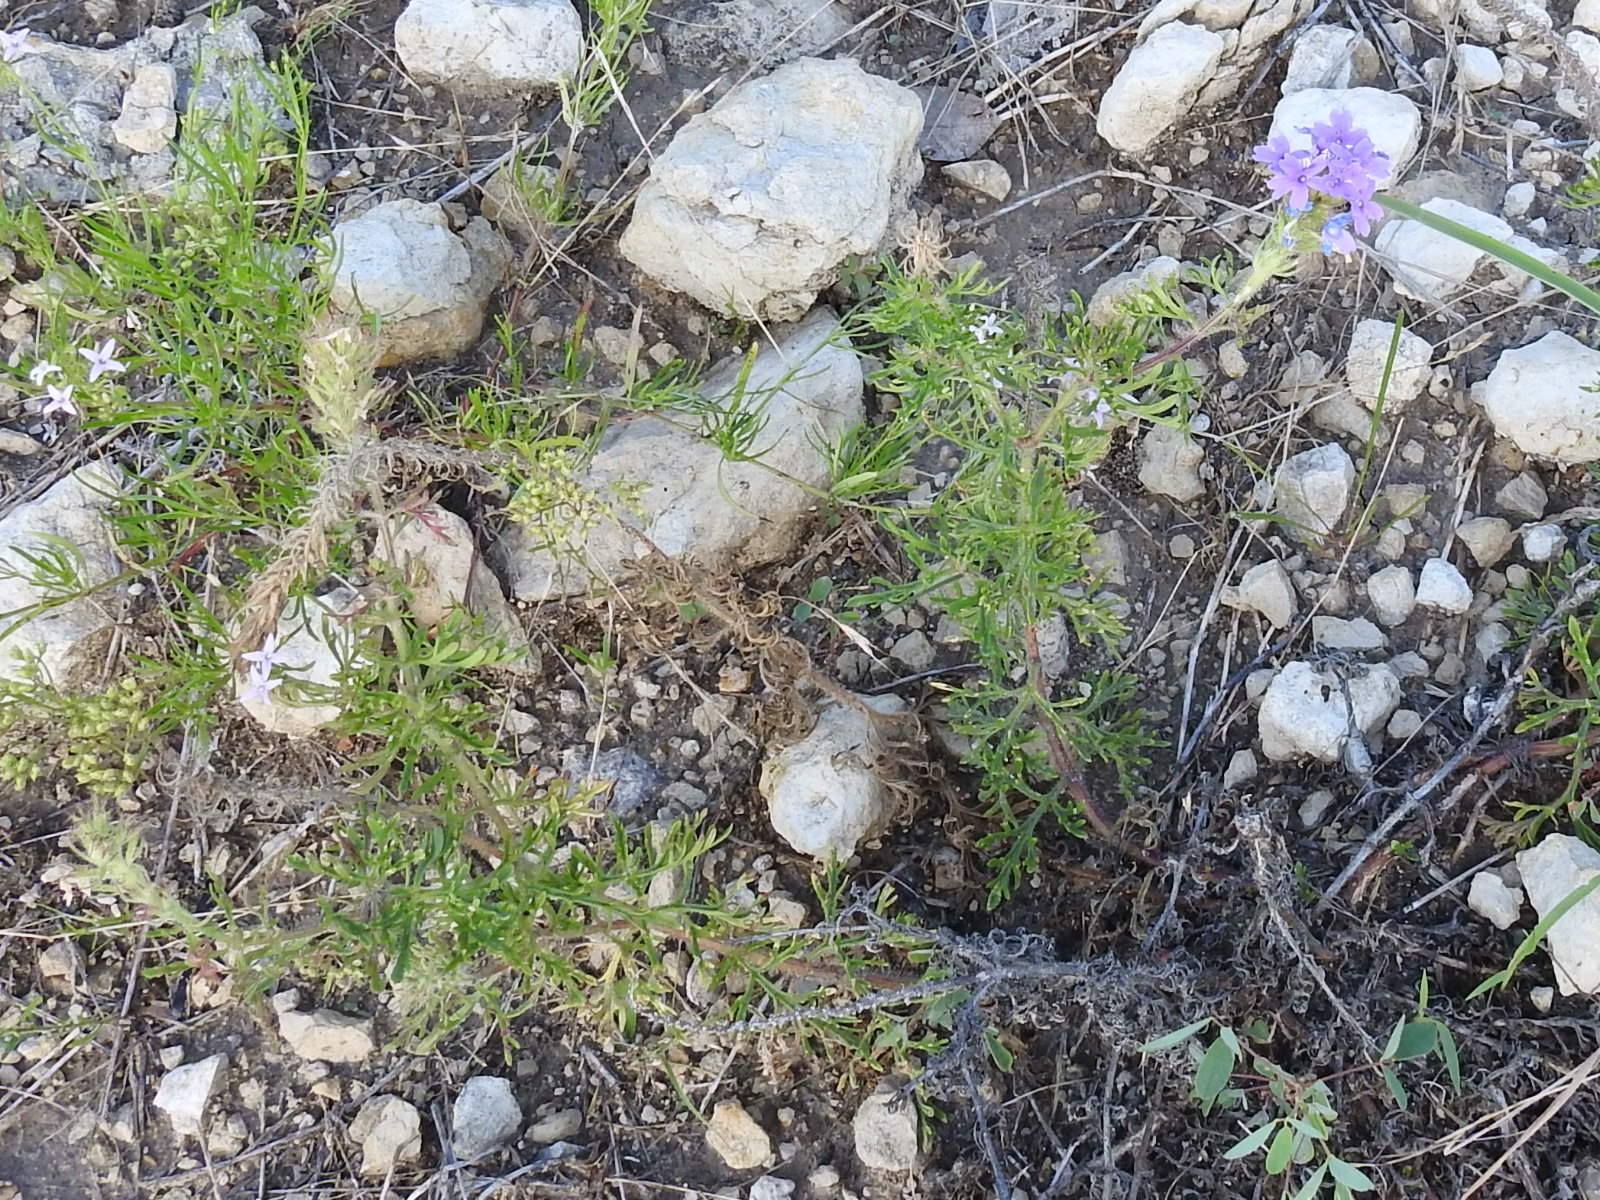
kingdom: Plantae
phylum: Tracheophyta
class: Magnoliopsida
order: Lamiales
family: Verbenaceae
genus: Verbena
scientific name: Verbena bipinnatifida
